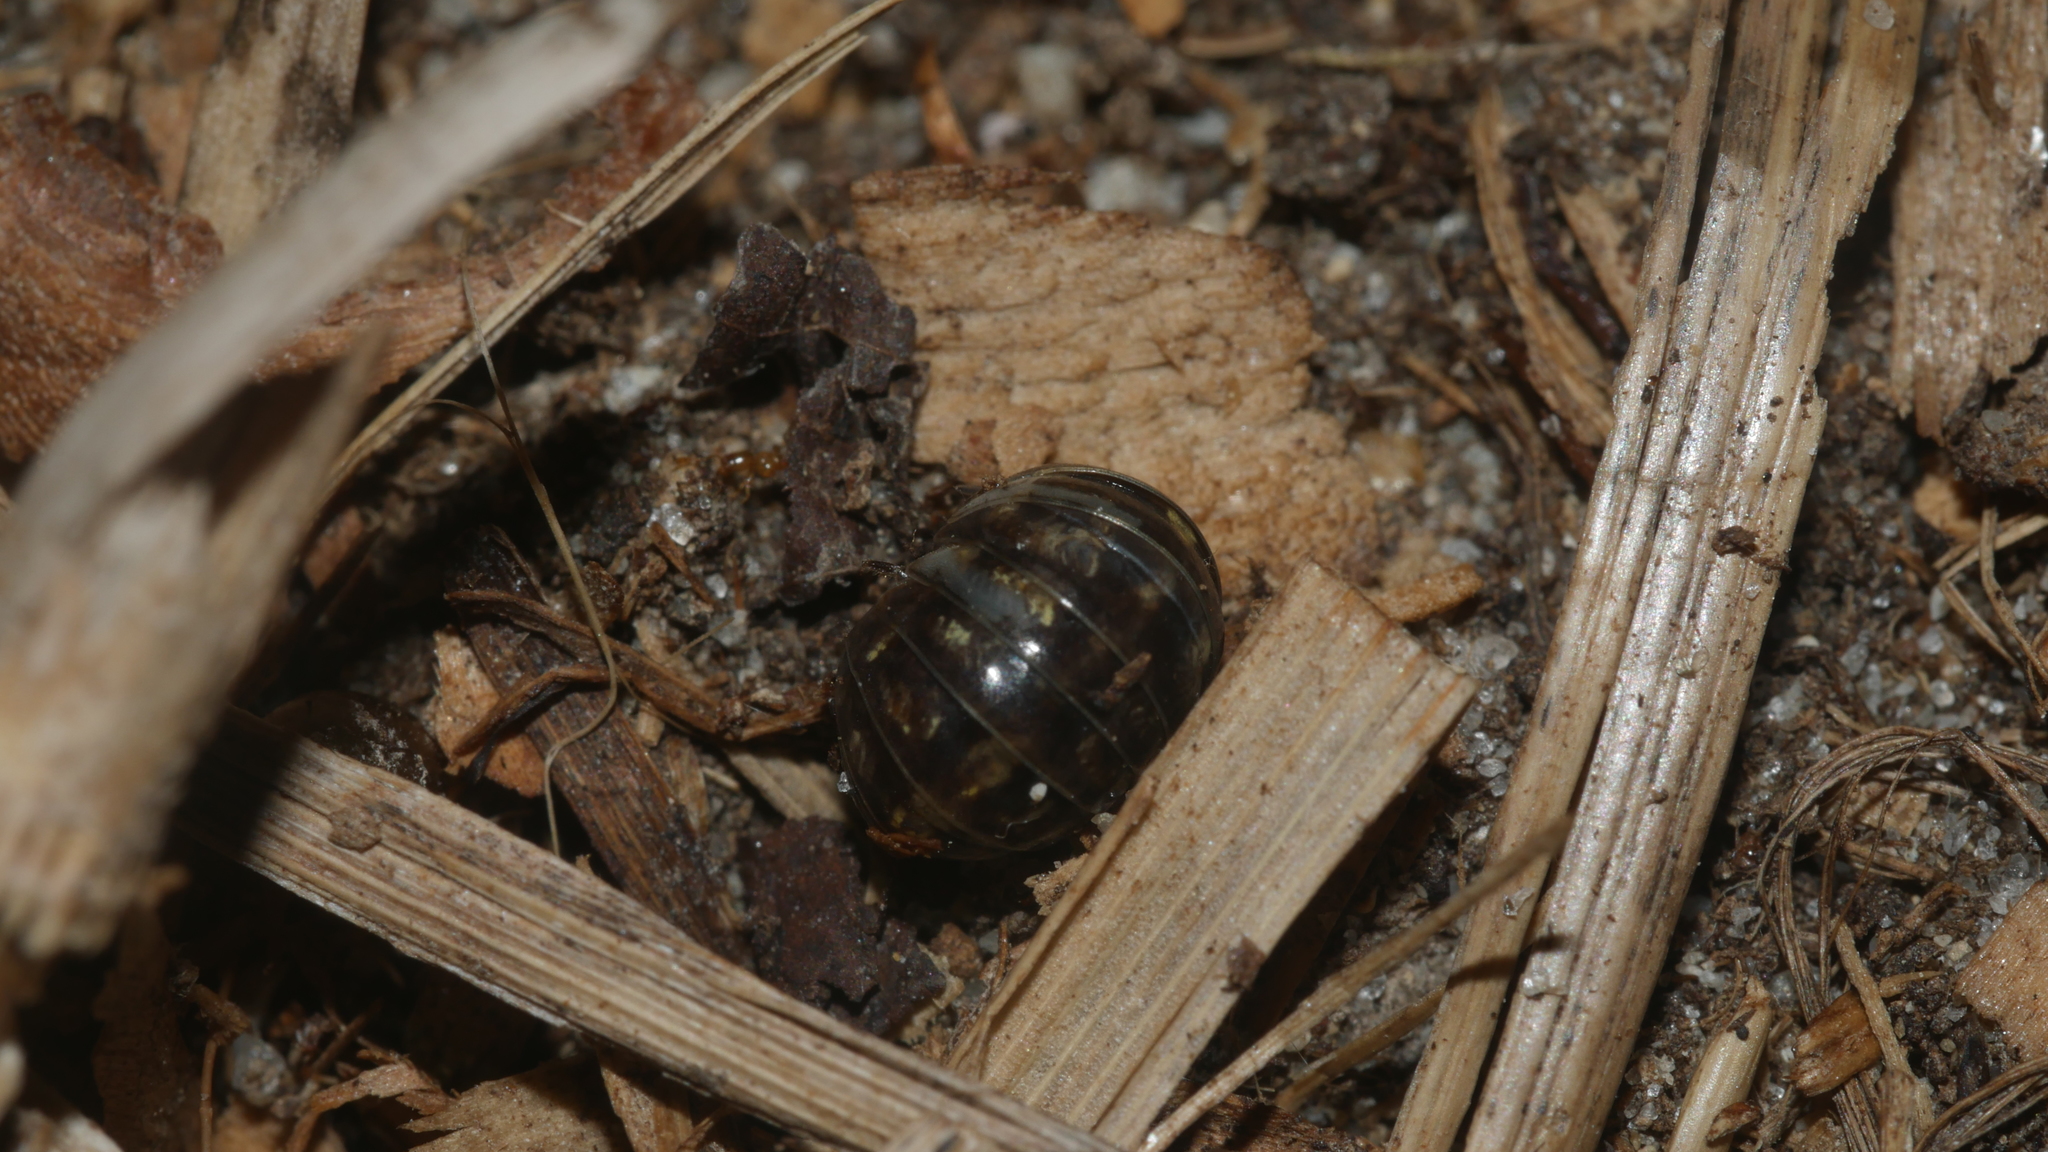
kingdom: Animalia
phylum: Arthropoda
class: Malacostraca
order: Isopoda
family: Armadillidiidae
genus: Armadillidium
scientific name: Armadillidium vulgare
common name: Common pill woodlouse
